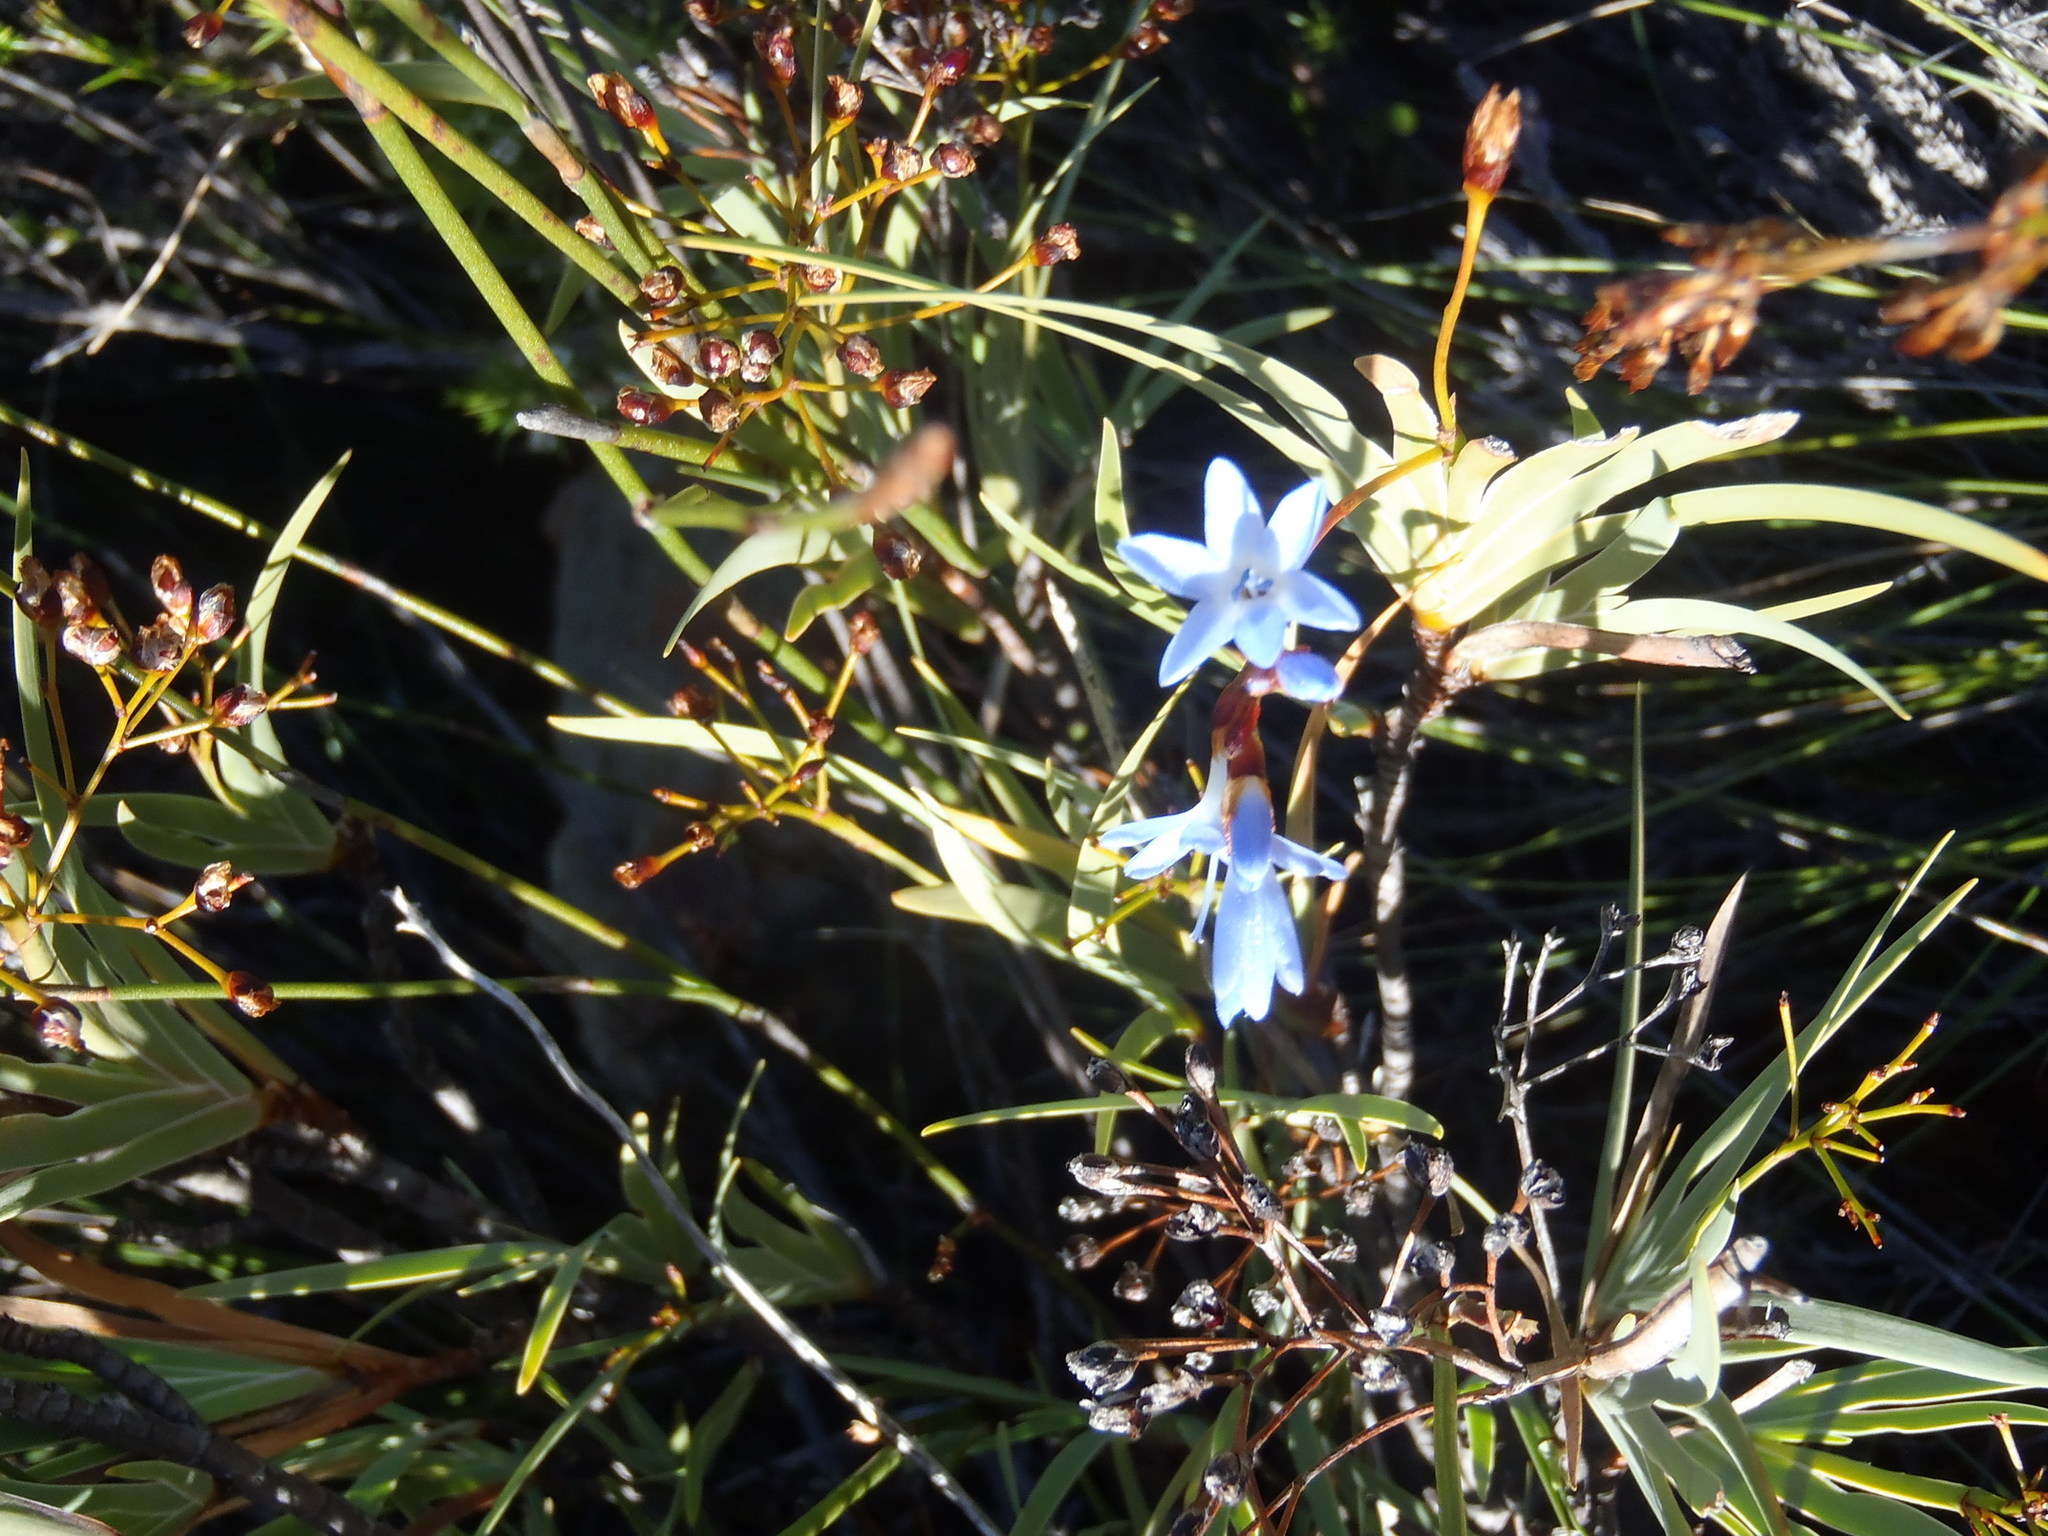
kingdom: Plantae
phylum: Tracheophyta
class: Liliopsida
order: Asparagales
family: Iridaceae
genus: Nivenia
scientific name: Nivenia parviflora
